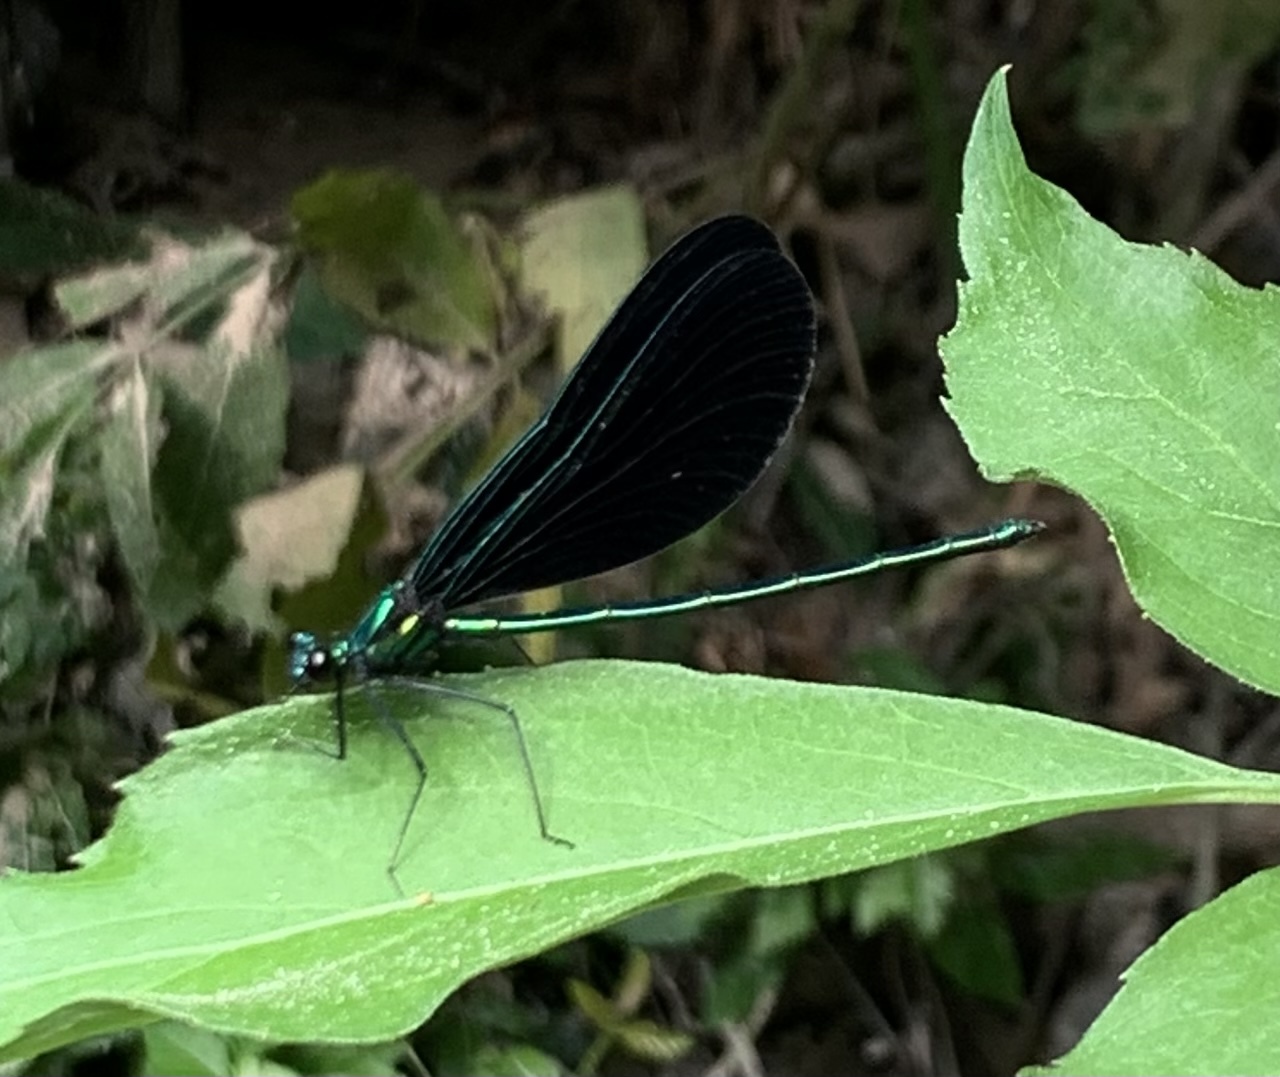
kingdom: Animalia
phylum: Arthropoda
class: Insecta
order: Odonata
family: Calopterygidae
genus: Calopteryx
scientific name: Calopteryx maculata
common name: Ebony jewelwing
